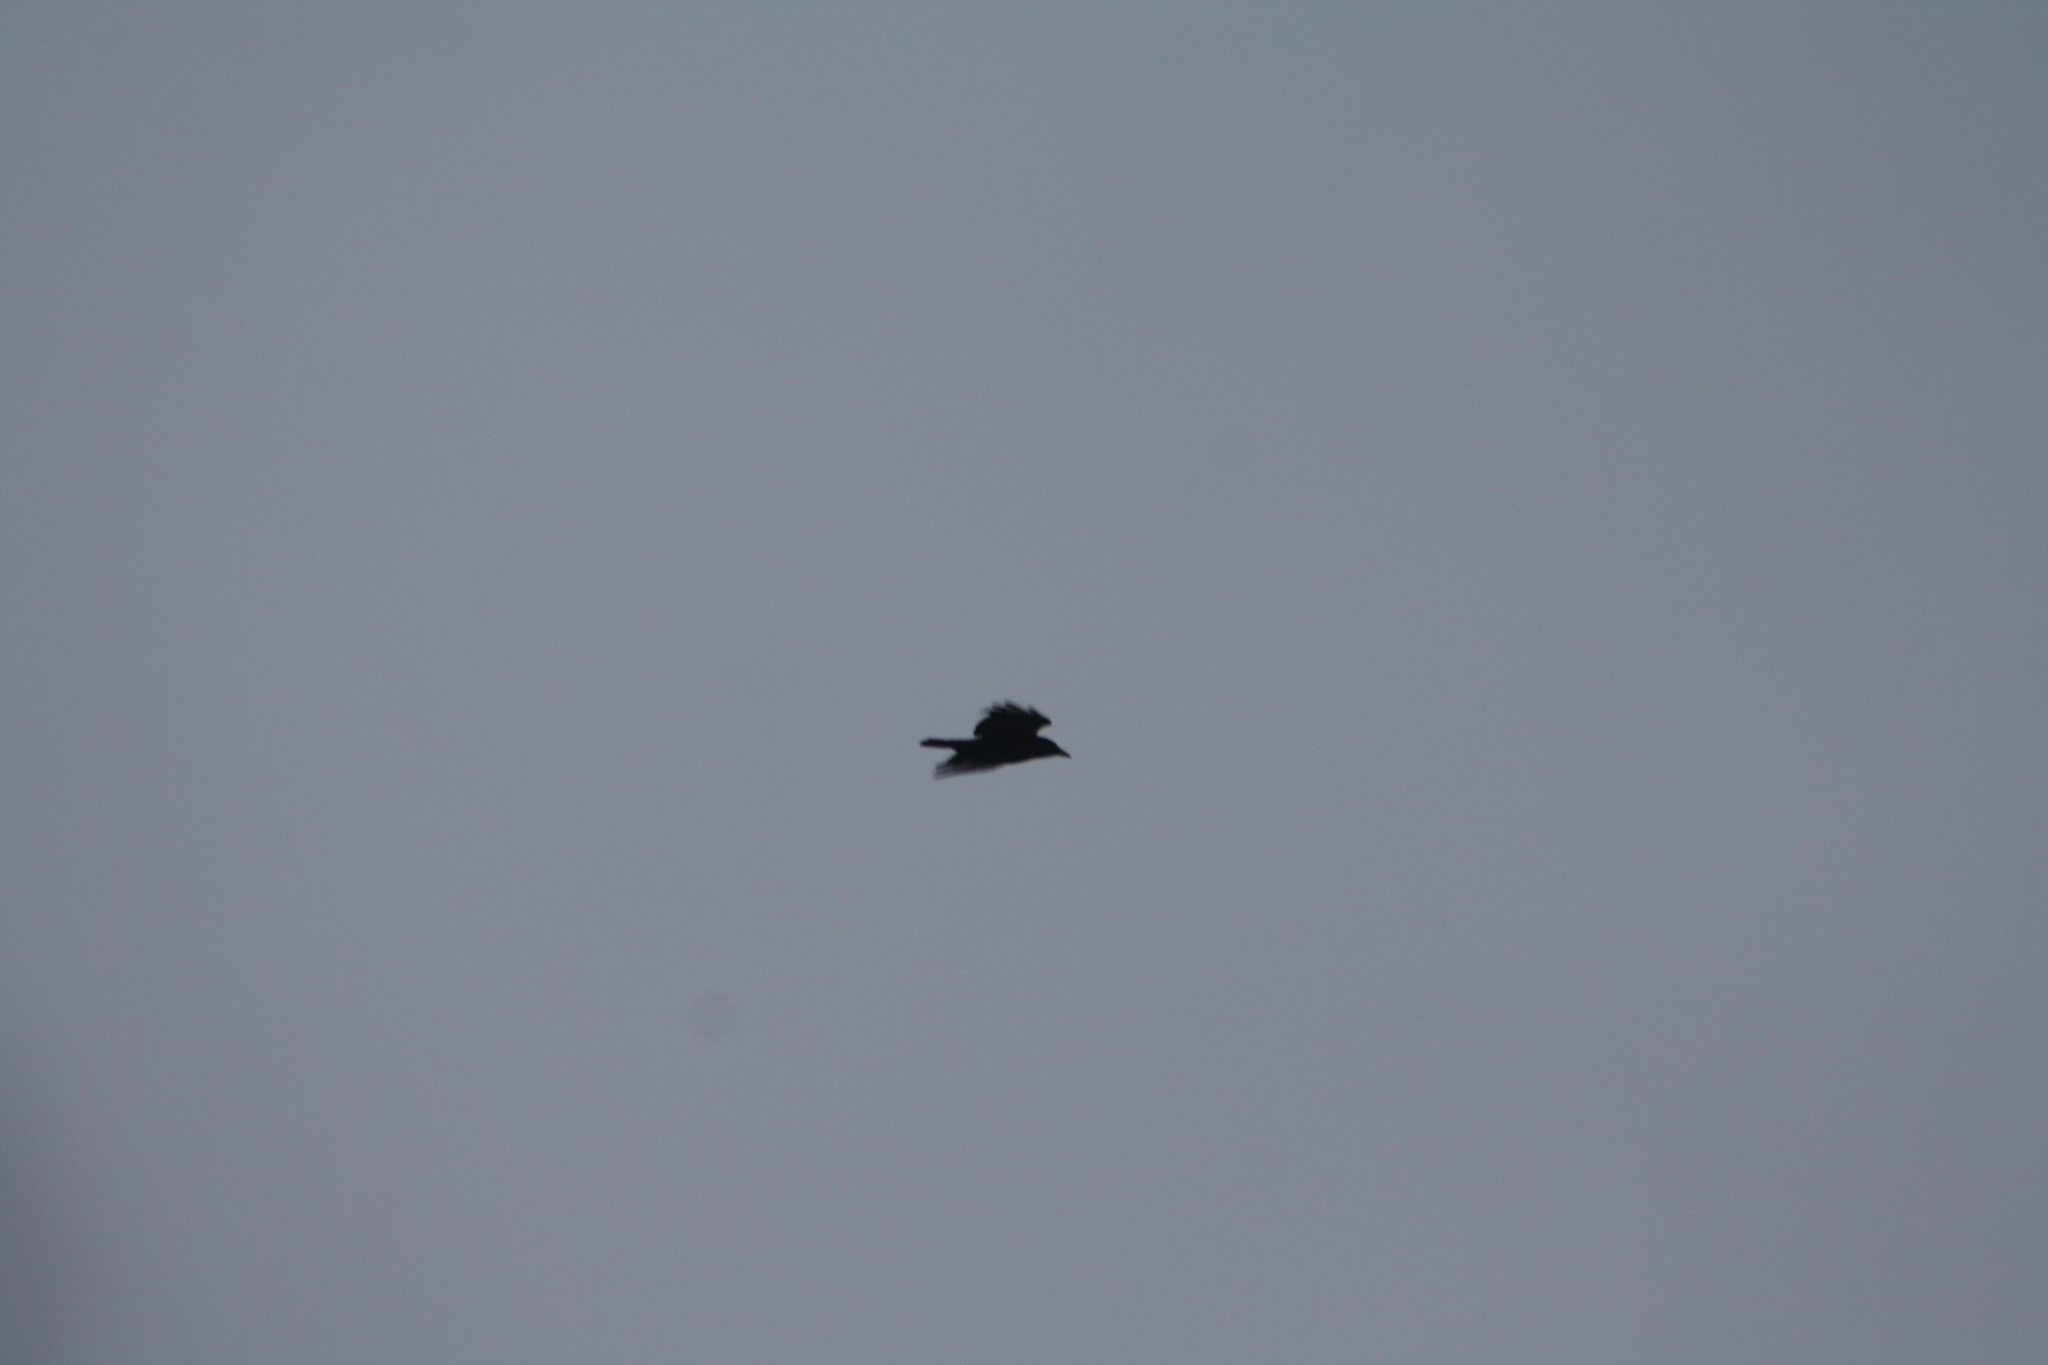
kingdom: Animalia
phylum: Chordata
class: Aves
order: Passeriformes
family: Corvidae
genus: Corvus
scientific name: Corvus corone
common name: Carrion crow
